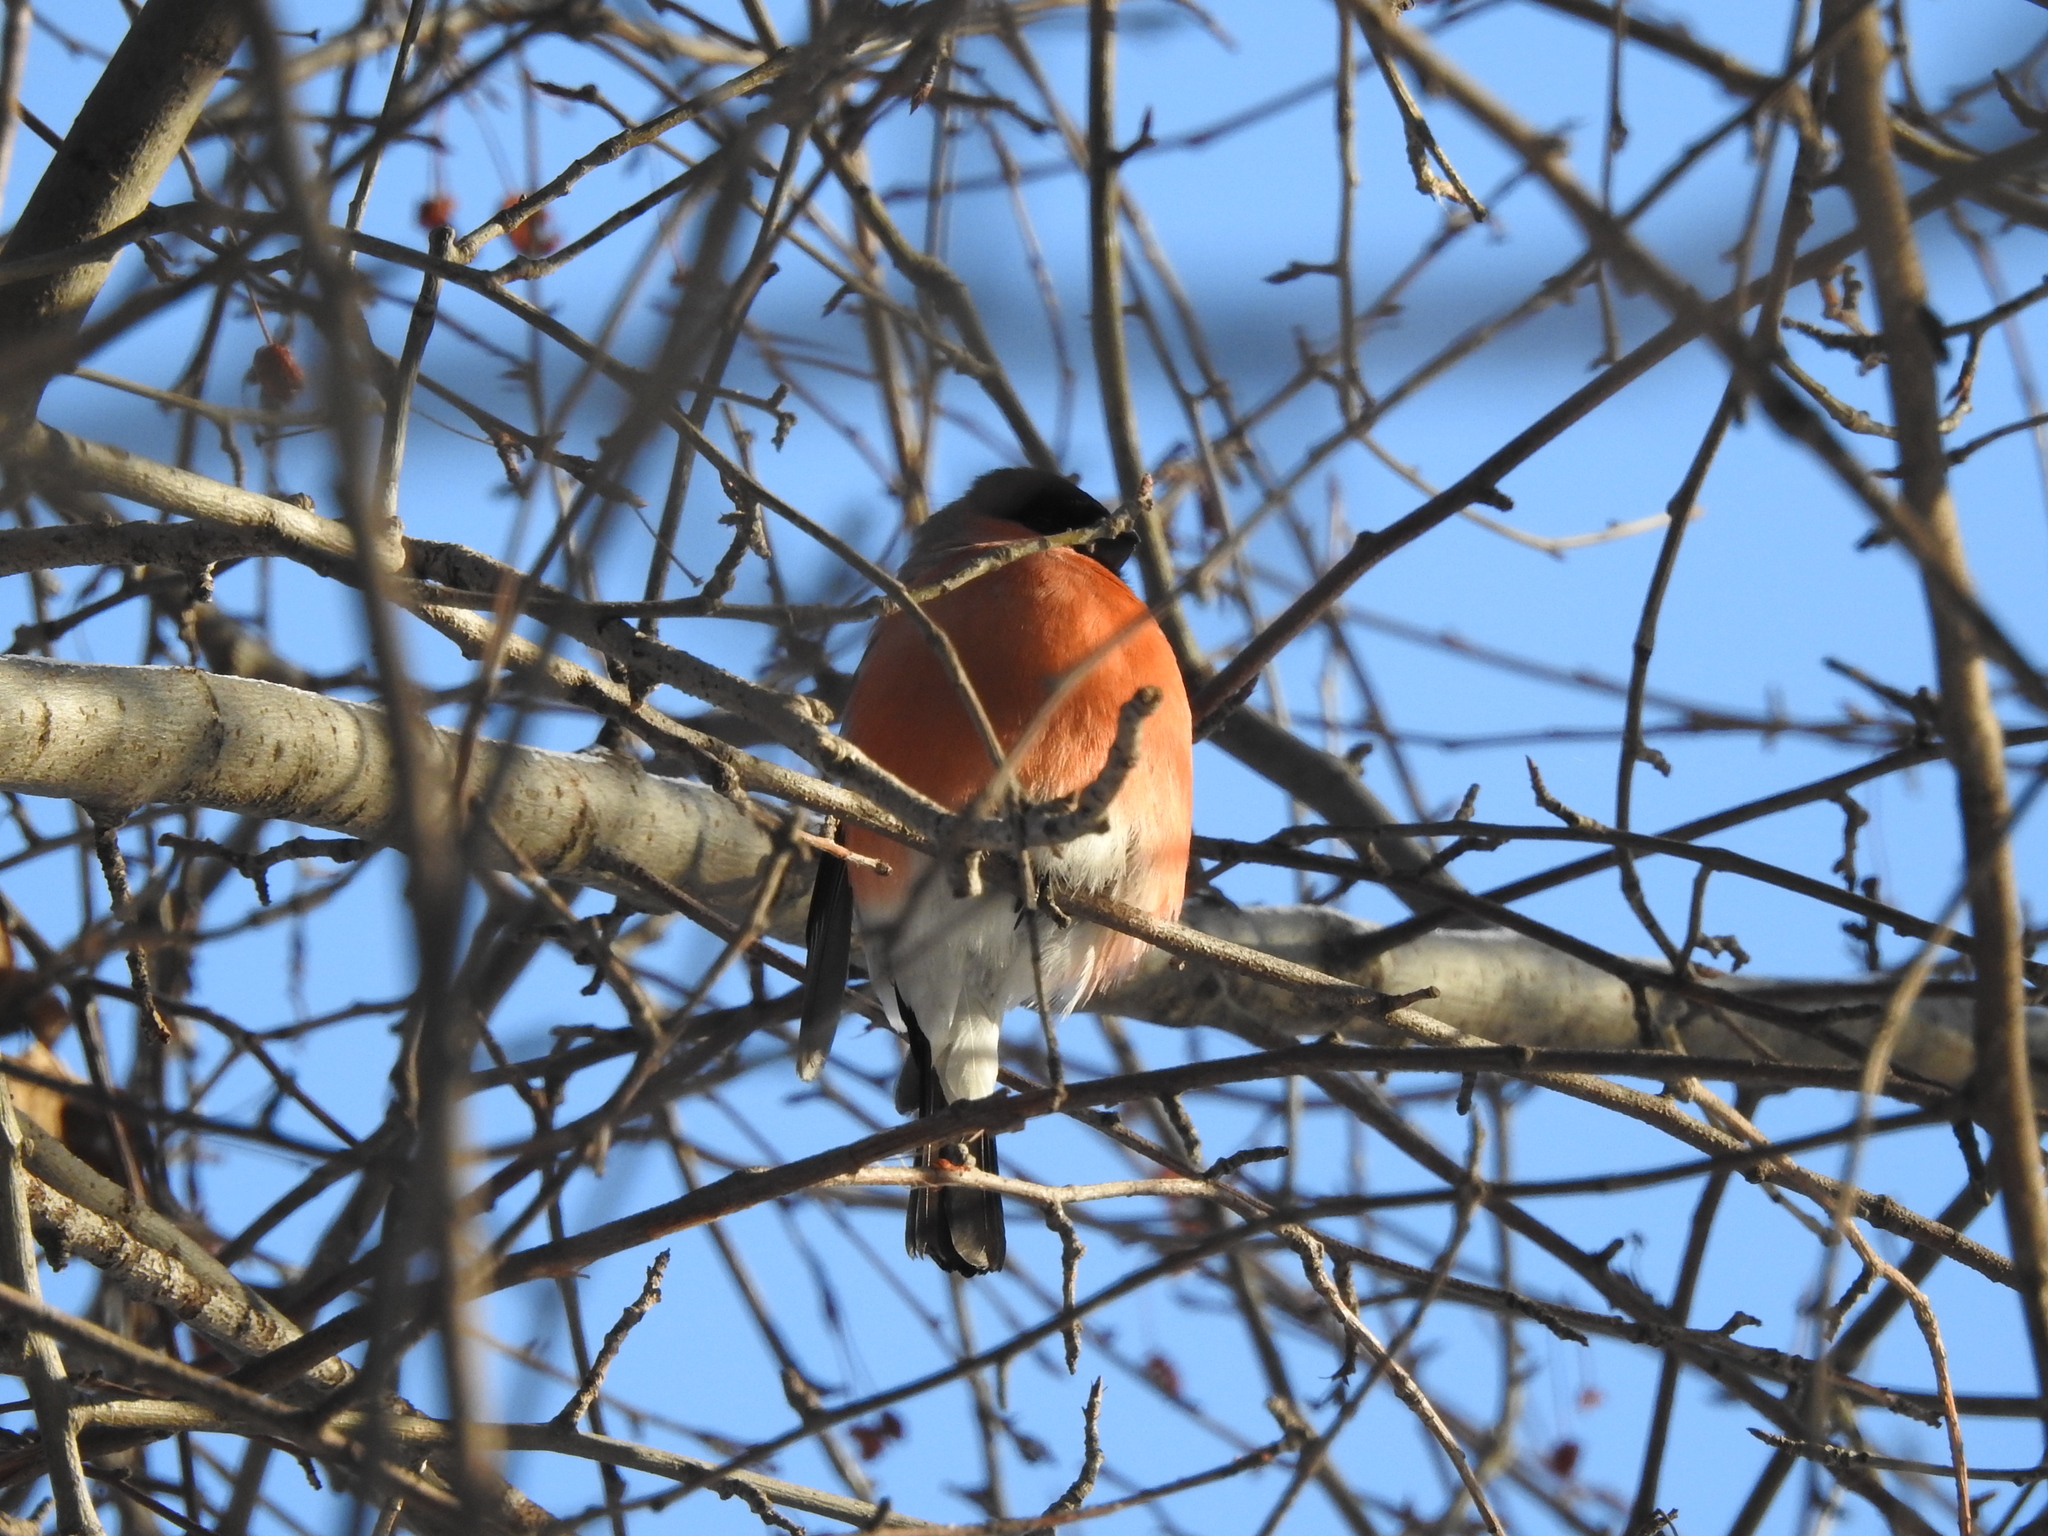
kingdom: Animalia
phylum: Chordata
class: Aves
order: Passeriformes
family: Fringillidae
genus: Pyrrhula
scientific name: Pyrrhula pyrrhula
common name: Eurasian bullfinch
